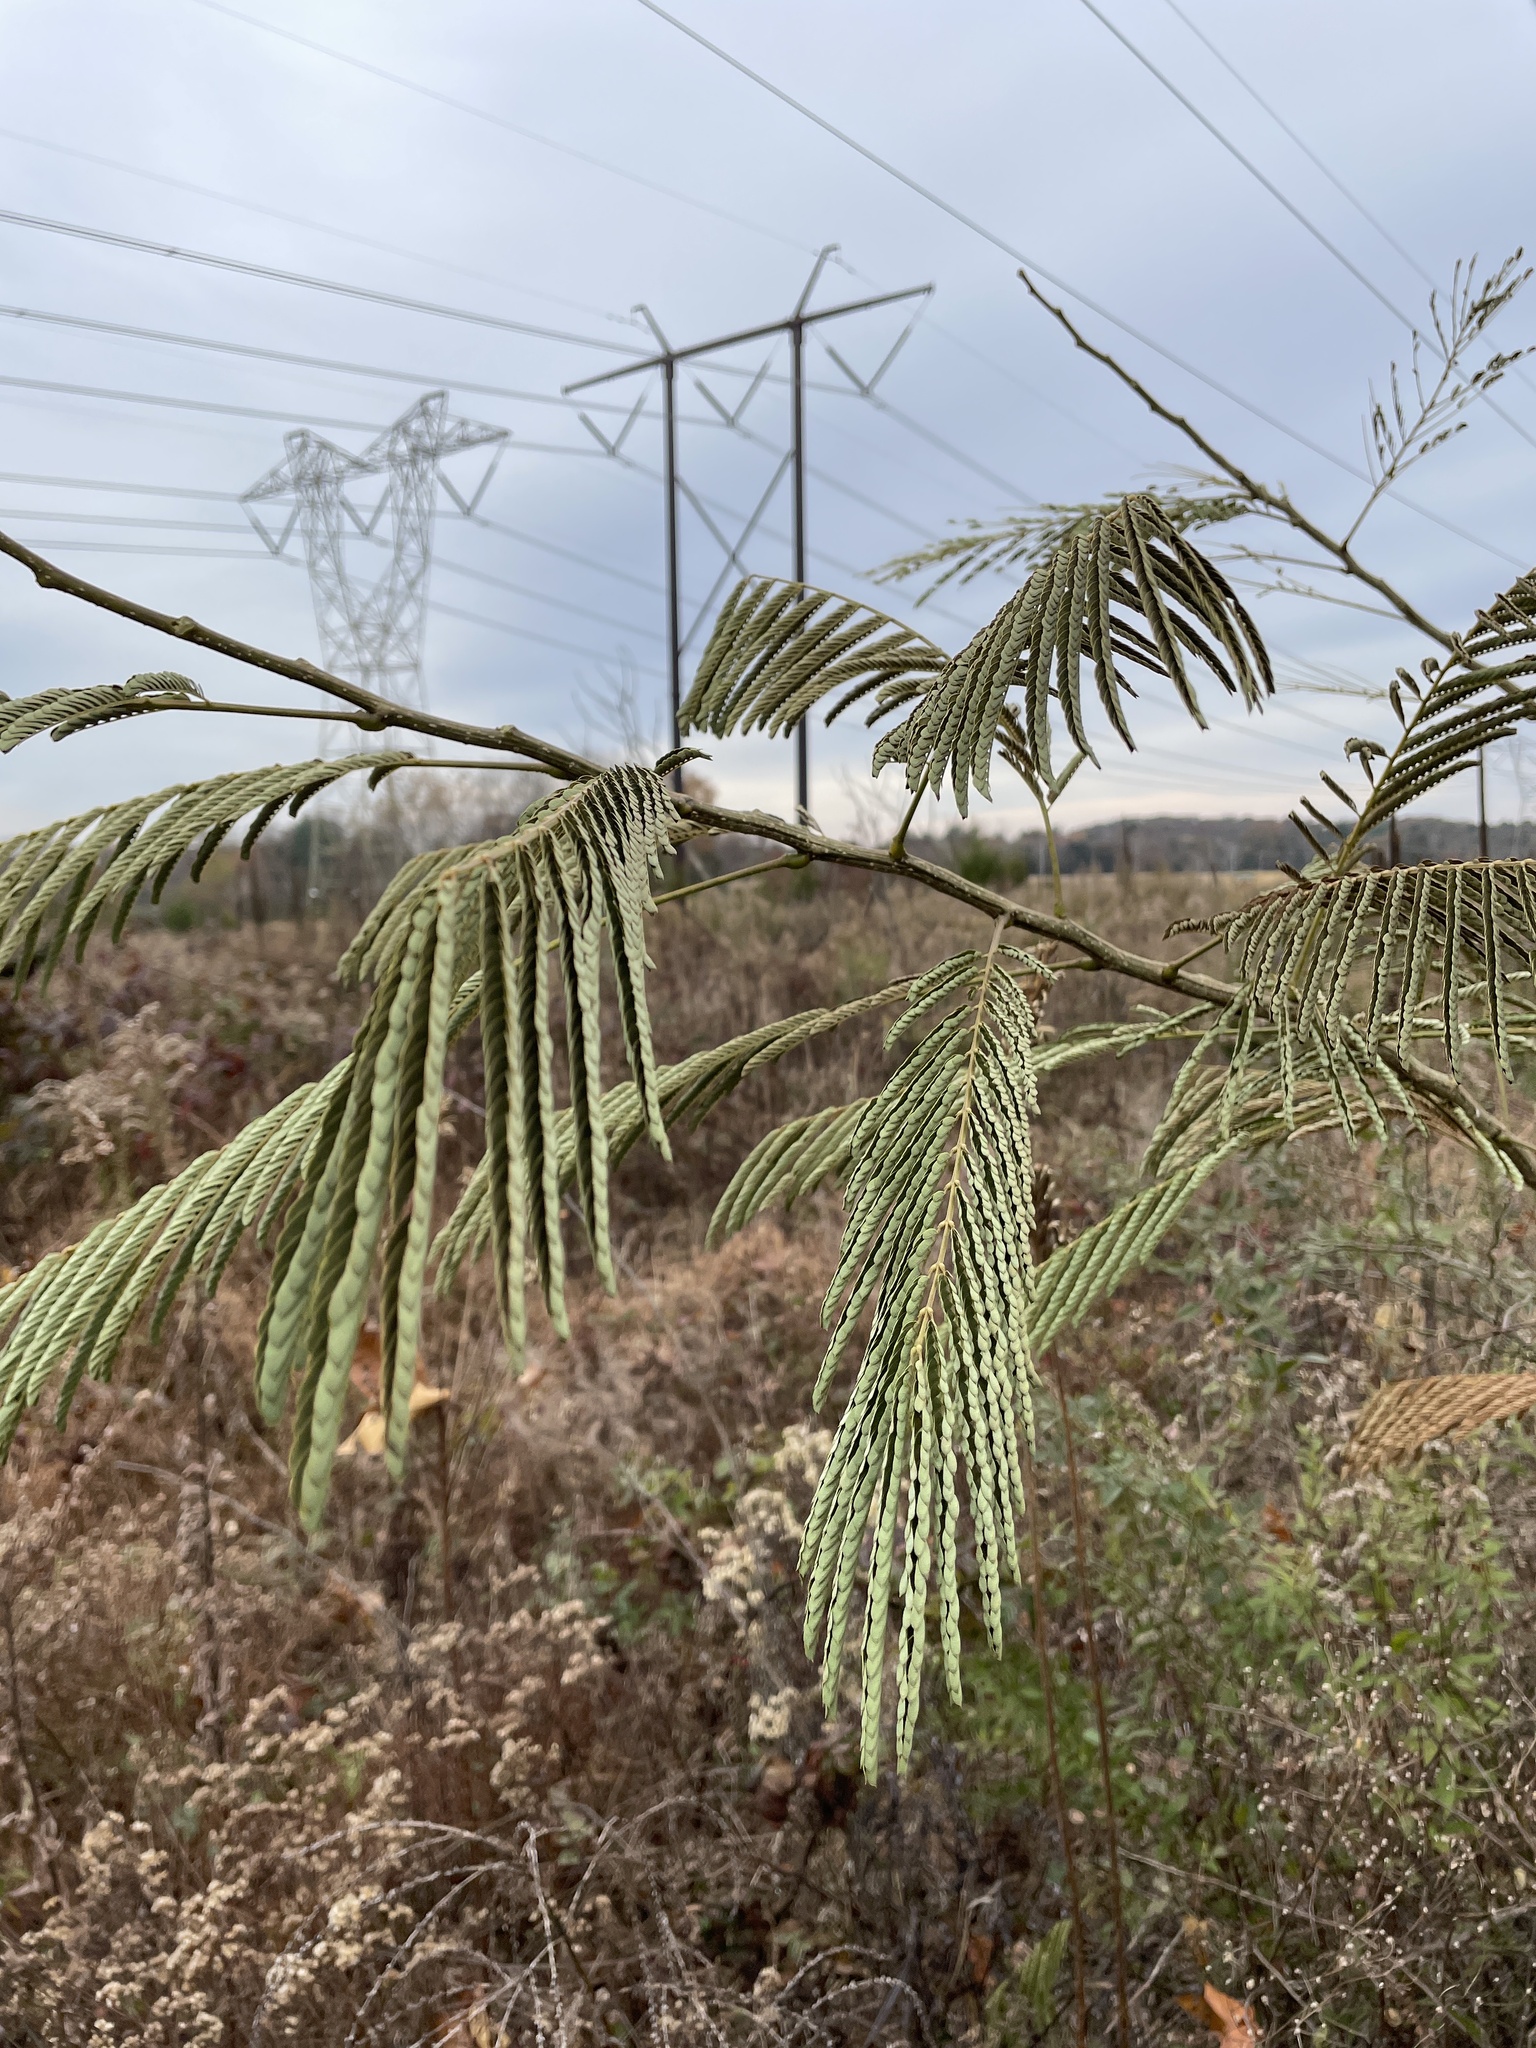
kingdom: Plantae
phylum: Tracheophyta
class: Magnoliopsida
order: Fabales
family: Fabaceae
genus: Albizia
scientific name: Albizia julibrissin
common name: Silktree
